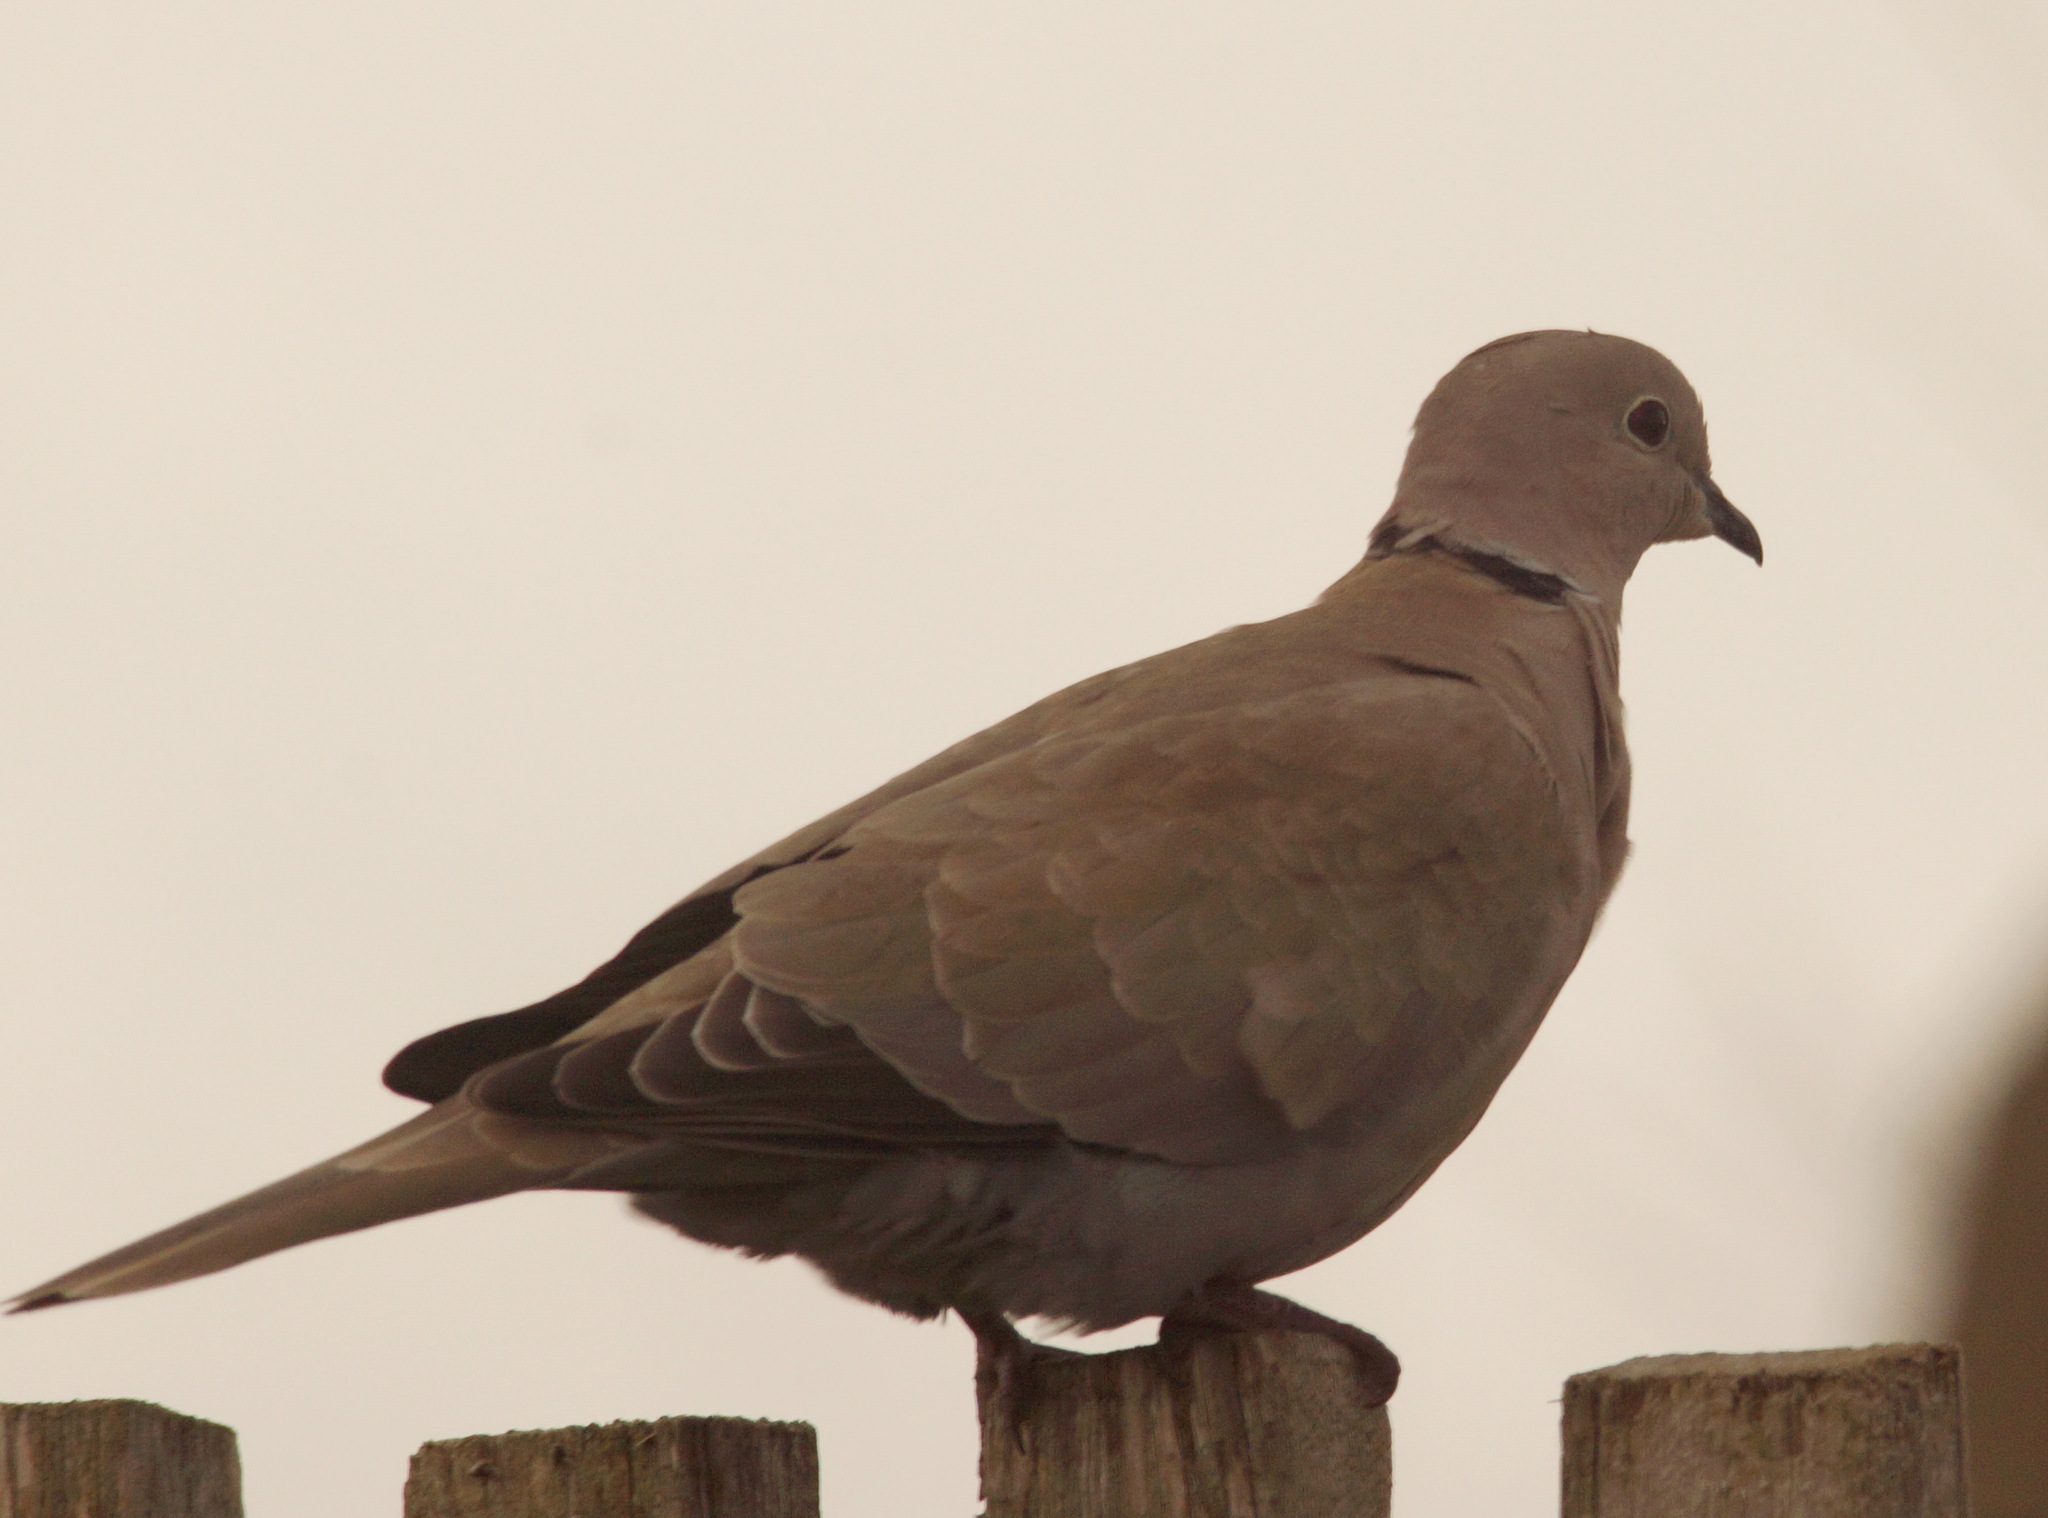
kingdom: Animalia
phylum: Chordata
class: Aves
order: Columbiformes
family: Columbidae
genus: Streptopelia
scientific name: Streptopelia decaocto
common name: Eurasian collared dove
